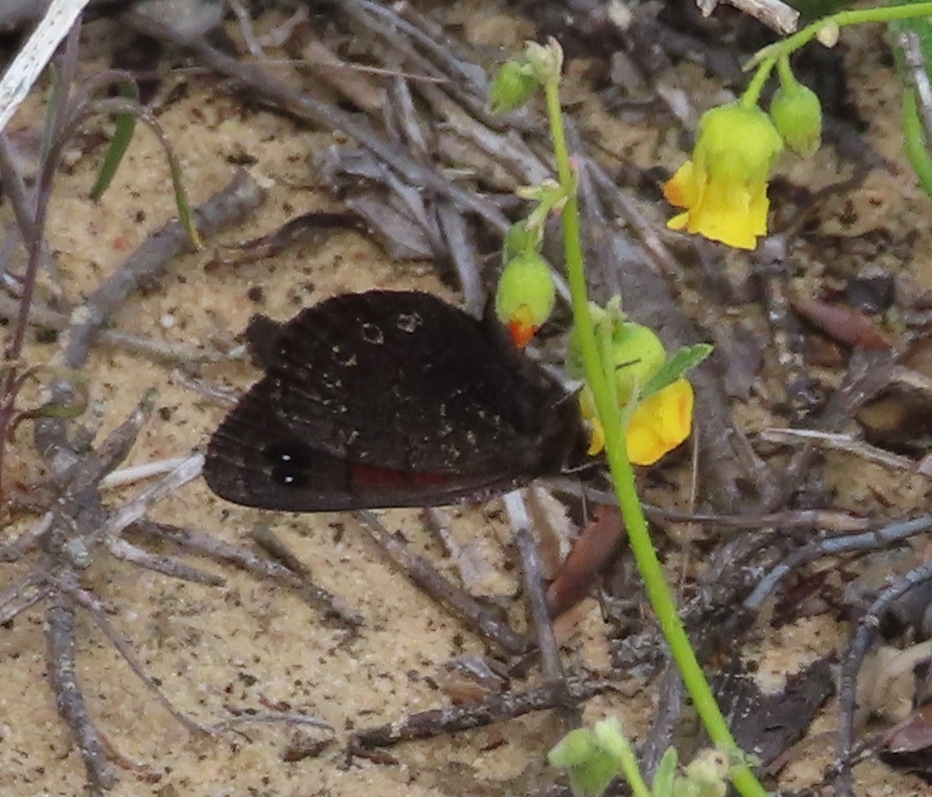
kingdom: Animalia
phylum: Arthropoda
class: Insecta
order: Lepidoptera
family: Nymphalidae
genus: Tarsocera
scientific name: Tarsocera cassina
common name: Sand-dune widow
